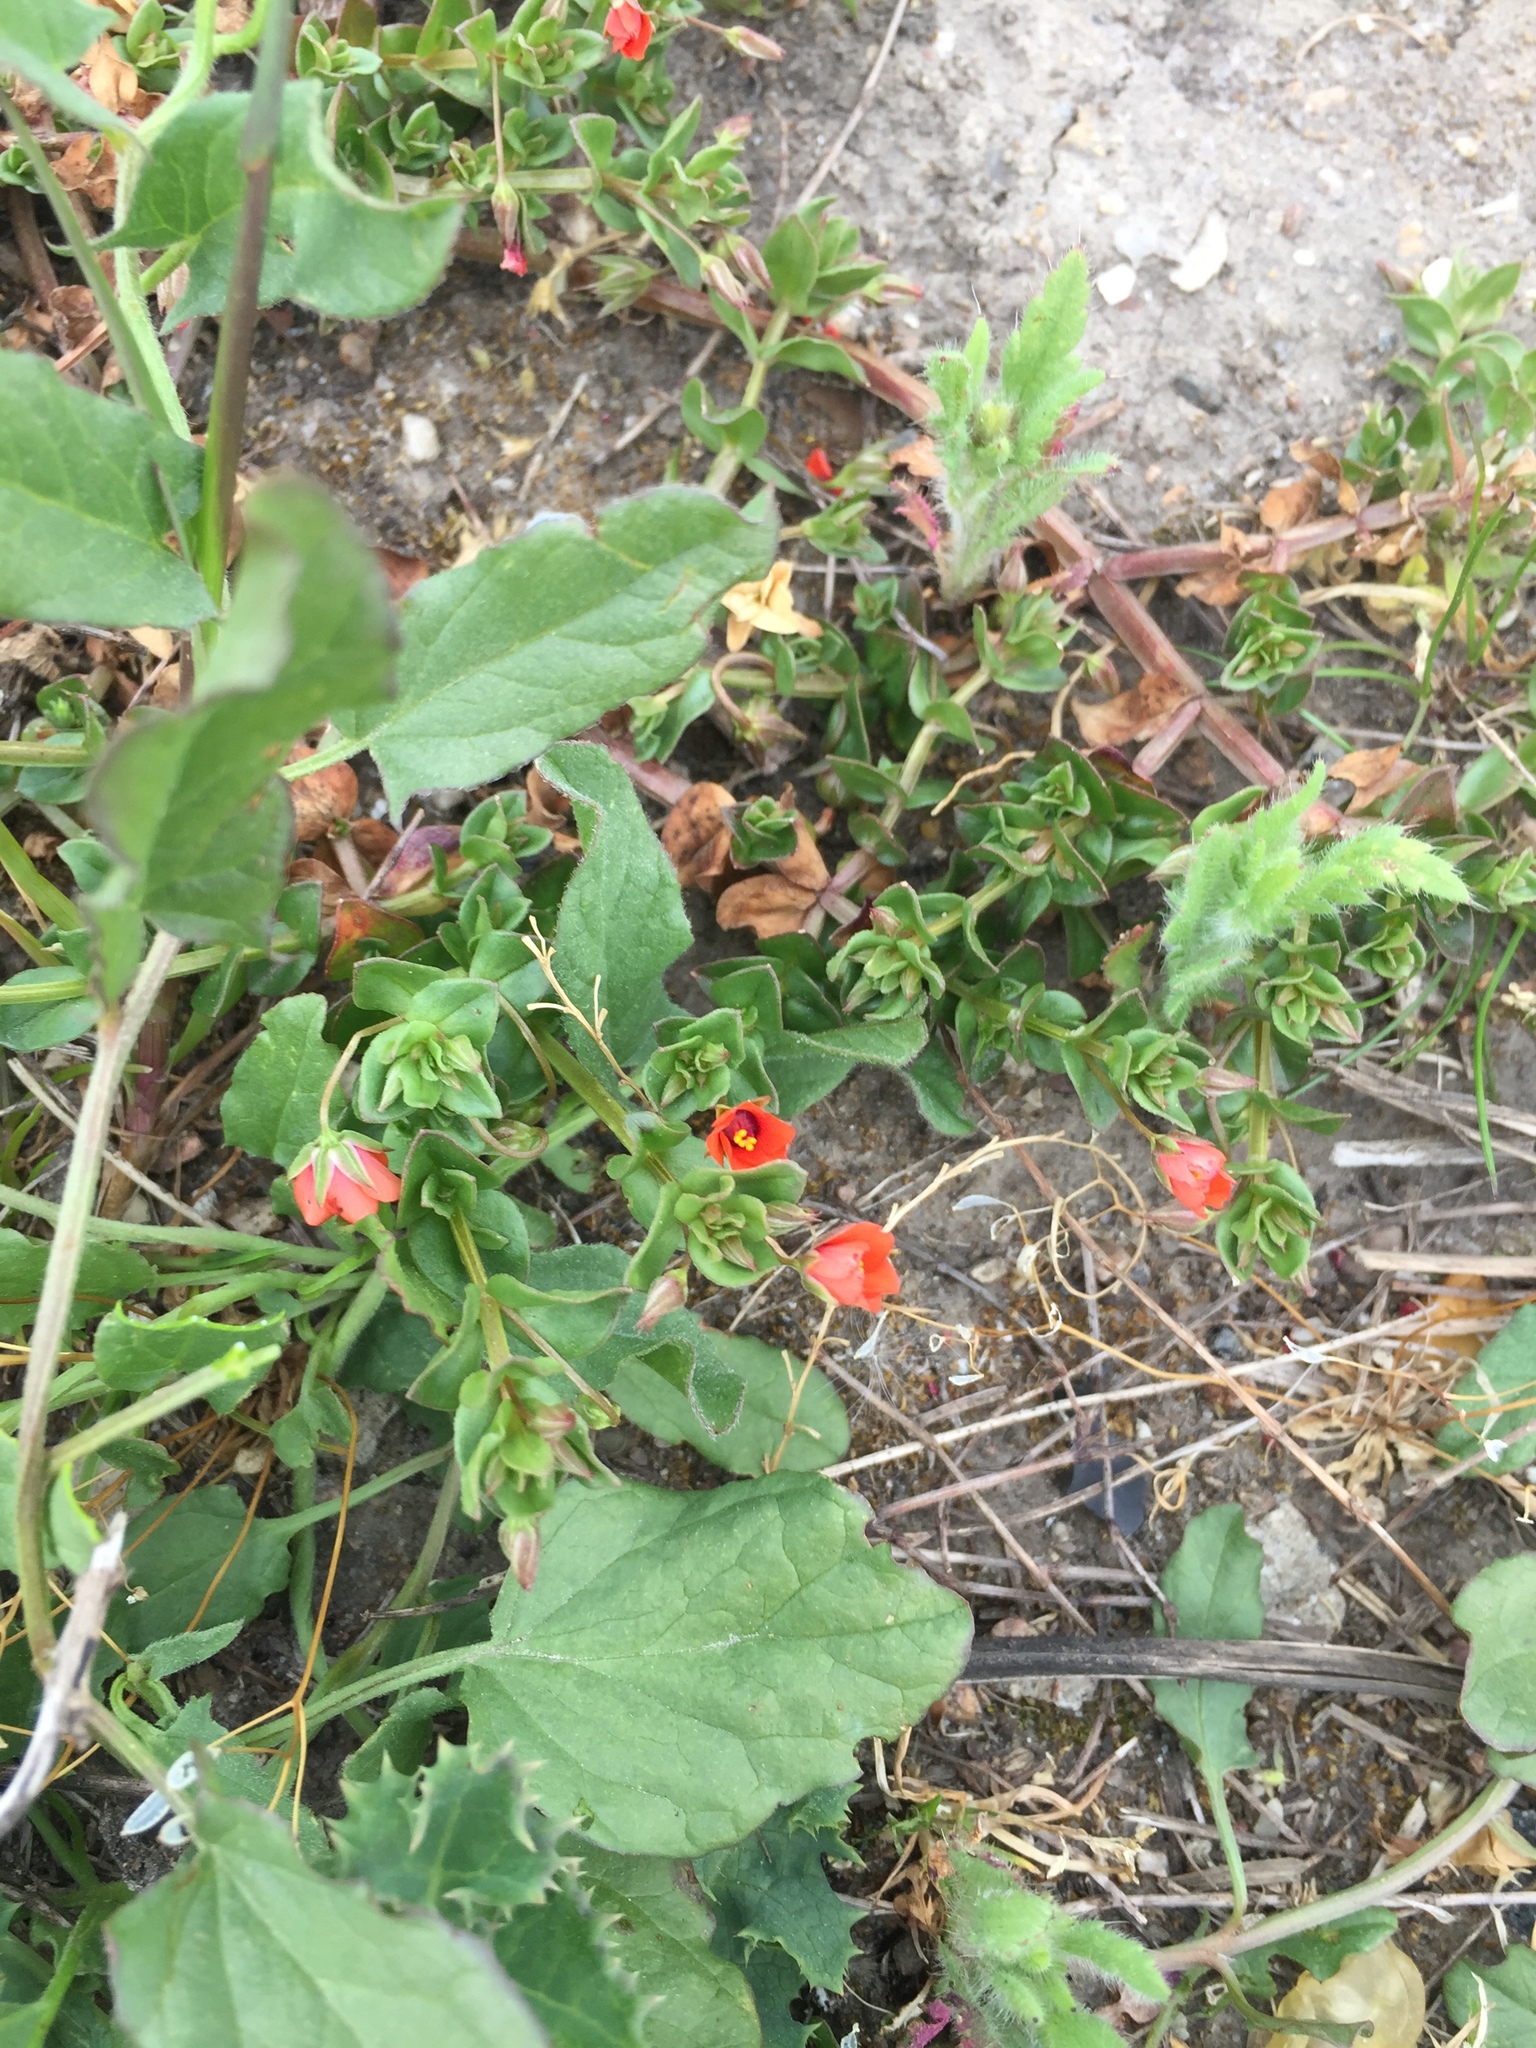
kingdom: Plantae
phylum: Tracheophyta
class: Magnoliopsida
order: Ericales
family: Primulaceae
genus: Lysimachia
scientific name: Lysimachia arvensis
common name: Scarlet pimpernel
